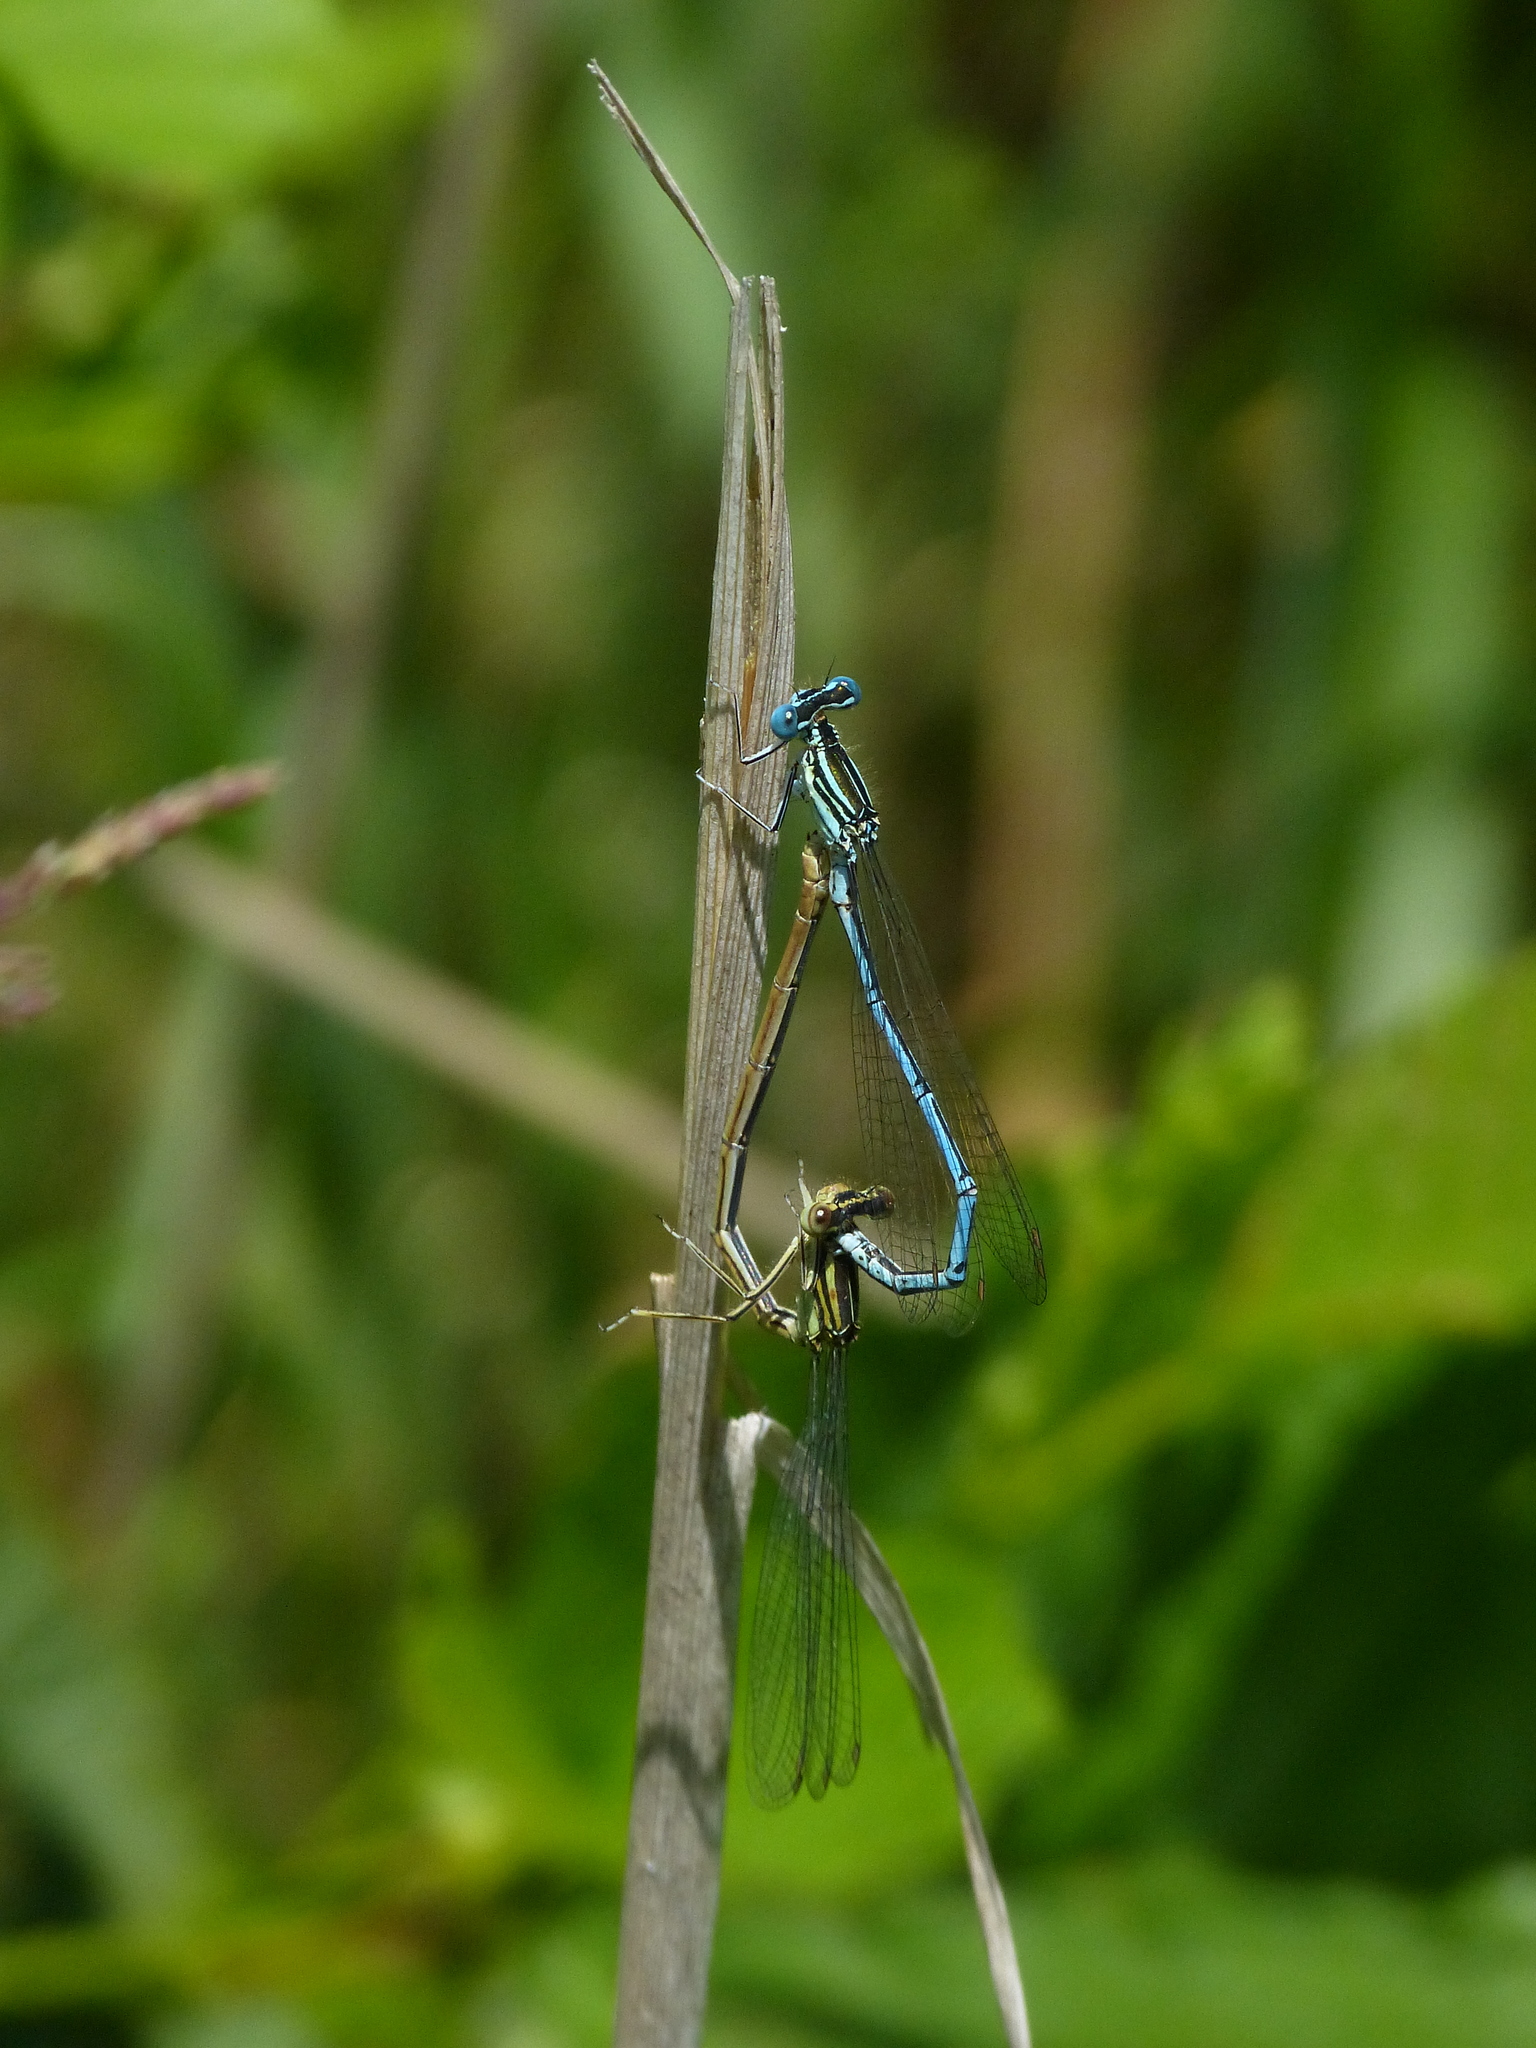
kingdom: Animalia
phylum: Arthropoda
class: Insecta
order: Odonata
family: Platycnemididae
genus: Platycnemis
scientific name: Platycnemis pennipes
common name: White-legged damselfly
